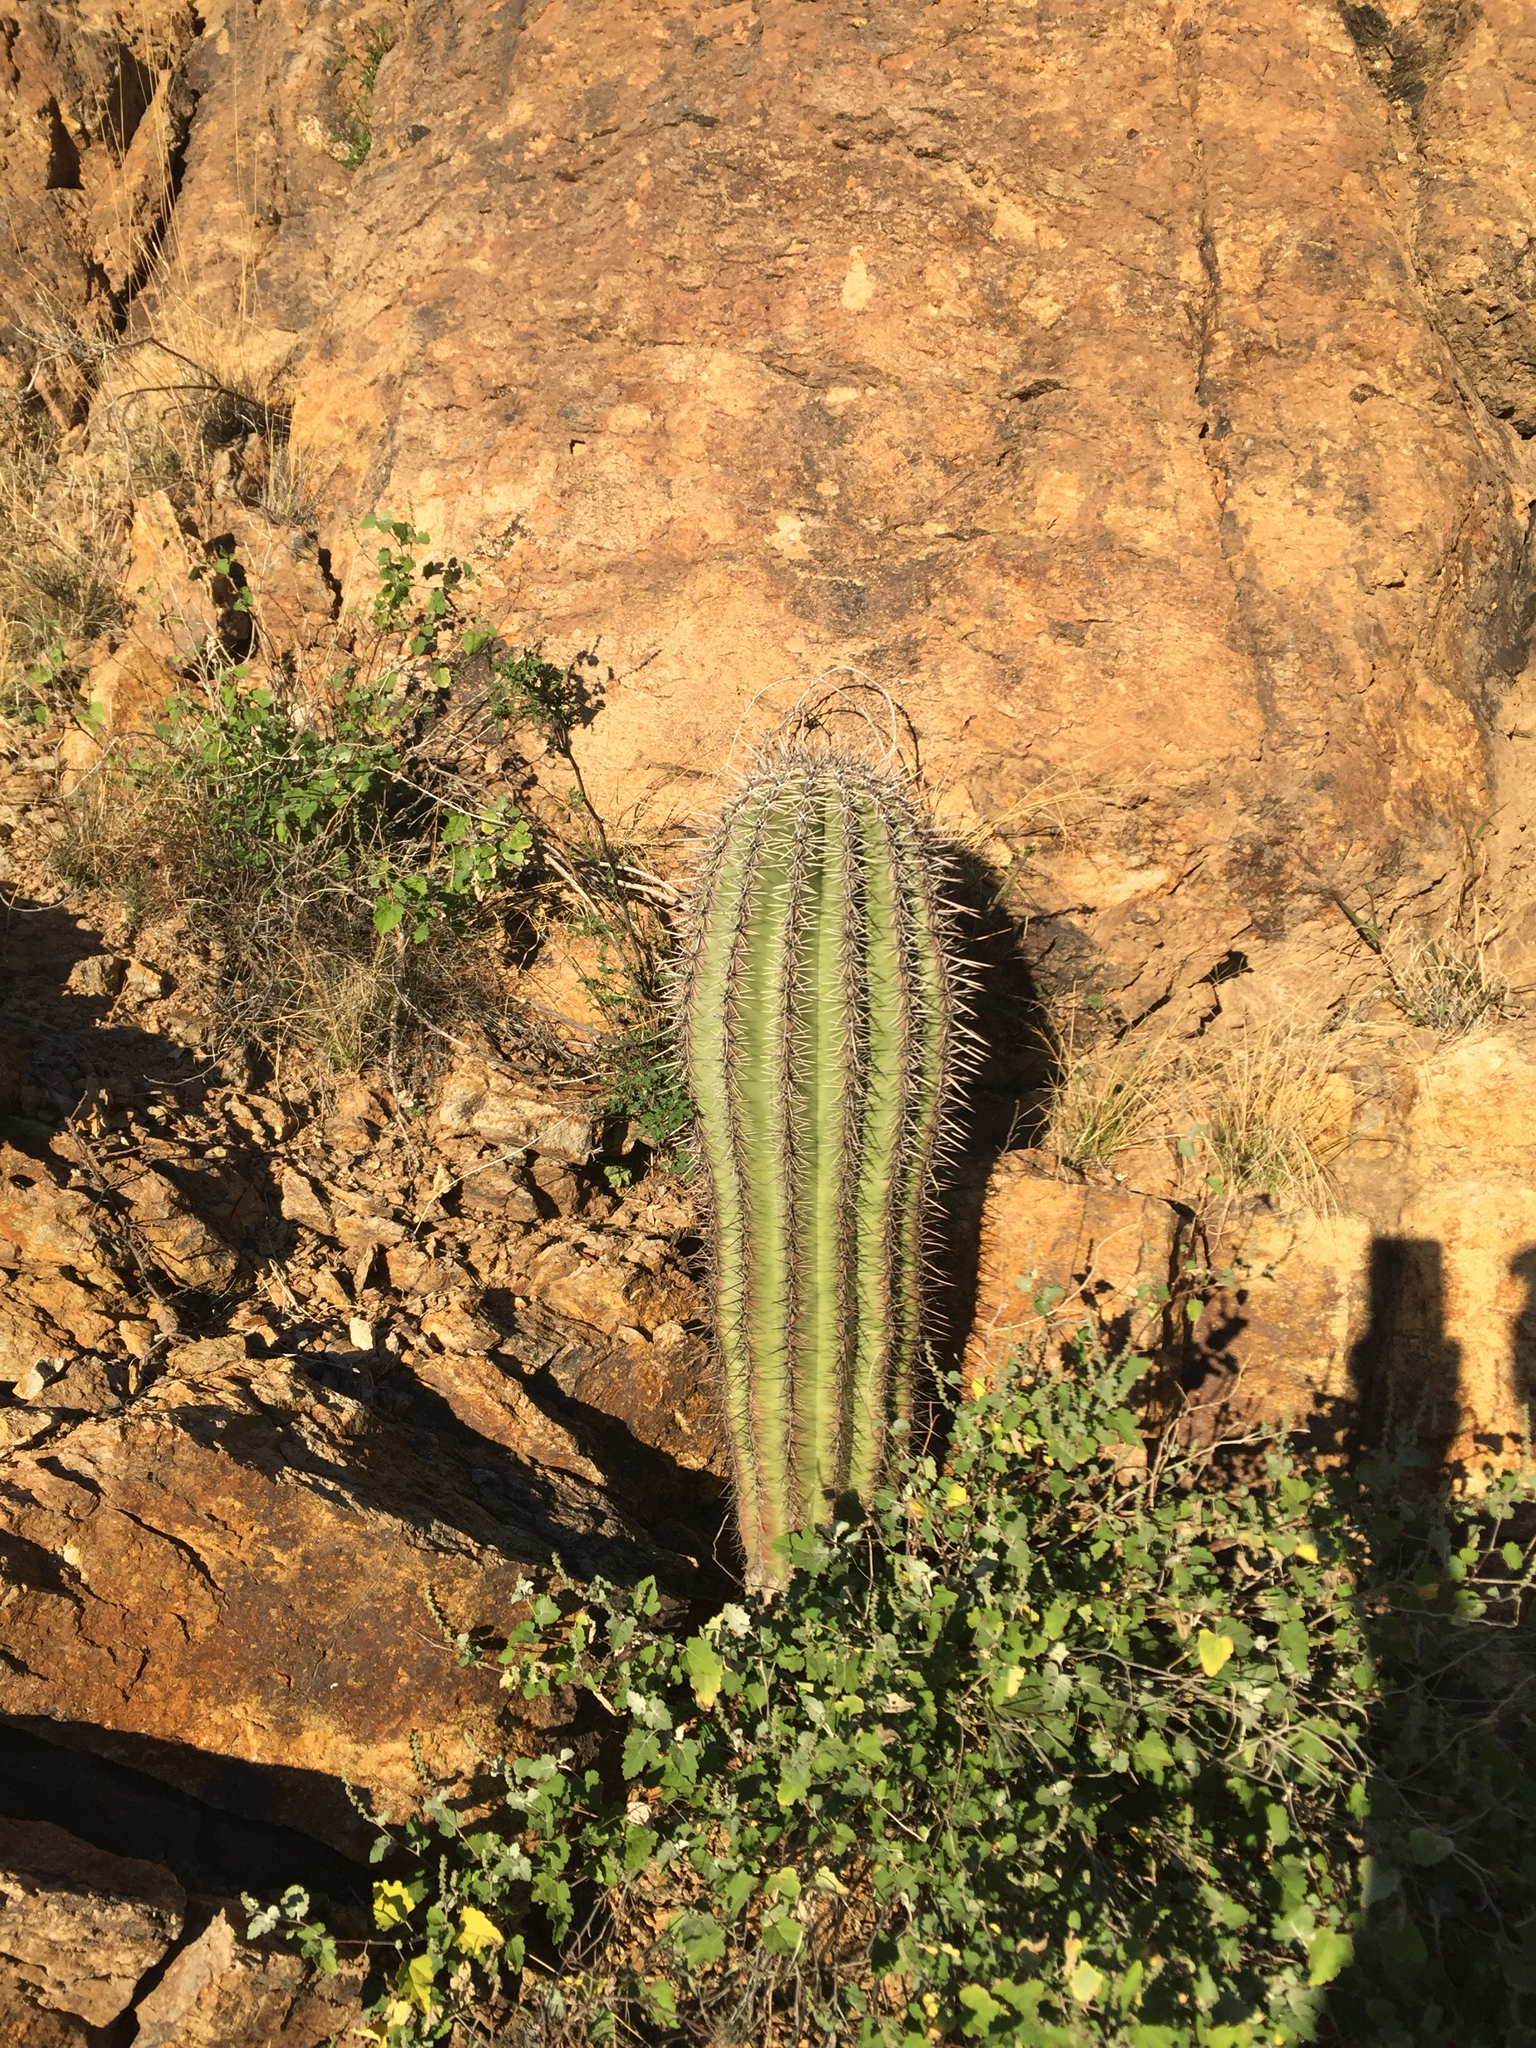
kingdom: Plantae
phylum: Tracheophyta
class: Magnoliopsida
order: Caryophyllales
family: Cactaceae
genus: Carnegiea
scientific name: Carnegiea gigantea
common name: Saguaro
